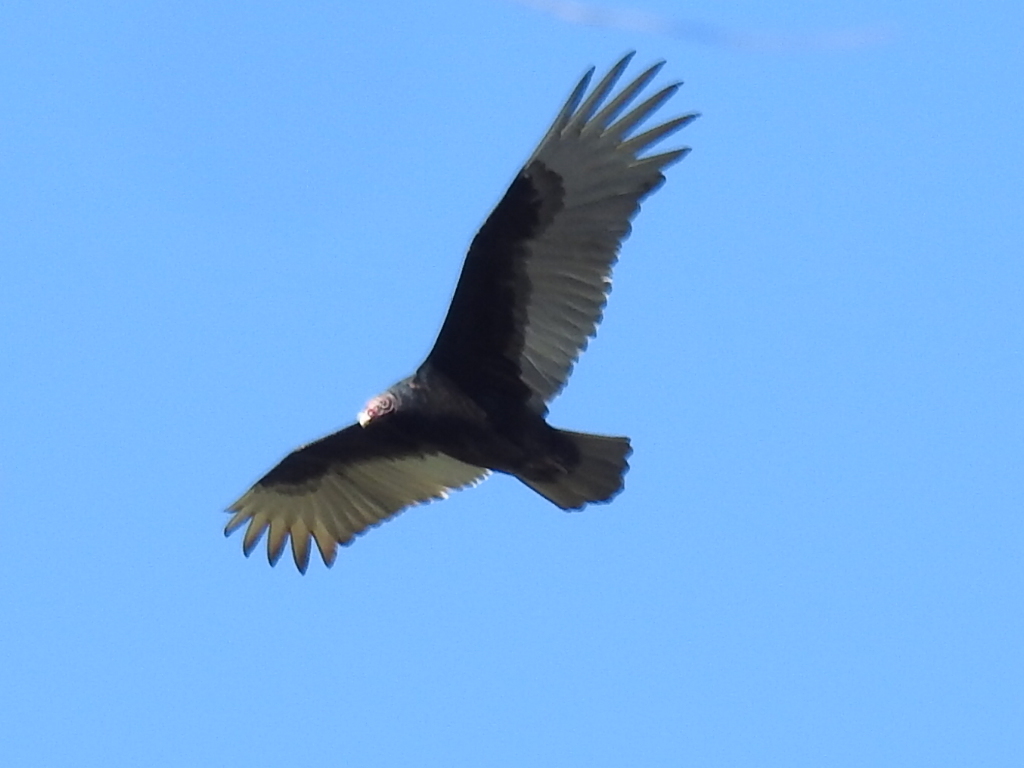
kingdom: Animalia
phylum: Chordata
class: Aves
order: Accipitriformes
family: Cathartidae
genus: Cathartes
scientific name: Cathartes aura
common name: Turkey vulture
